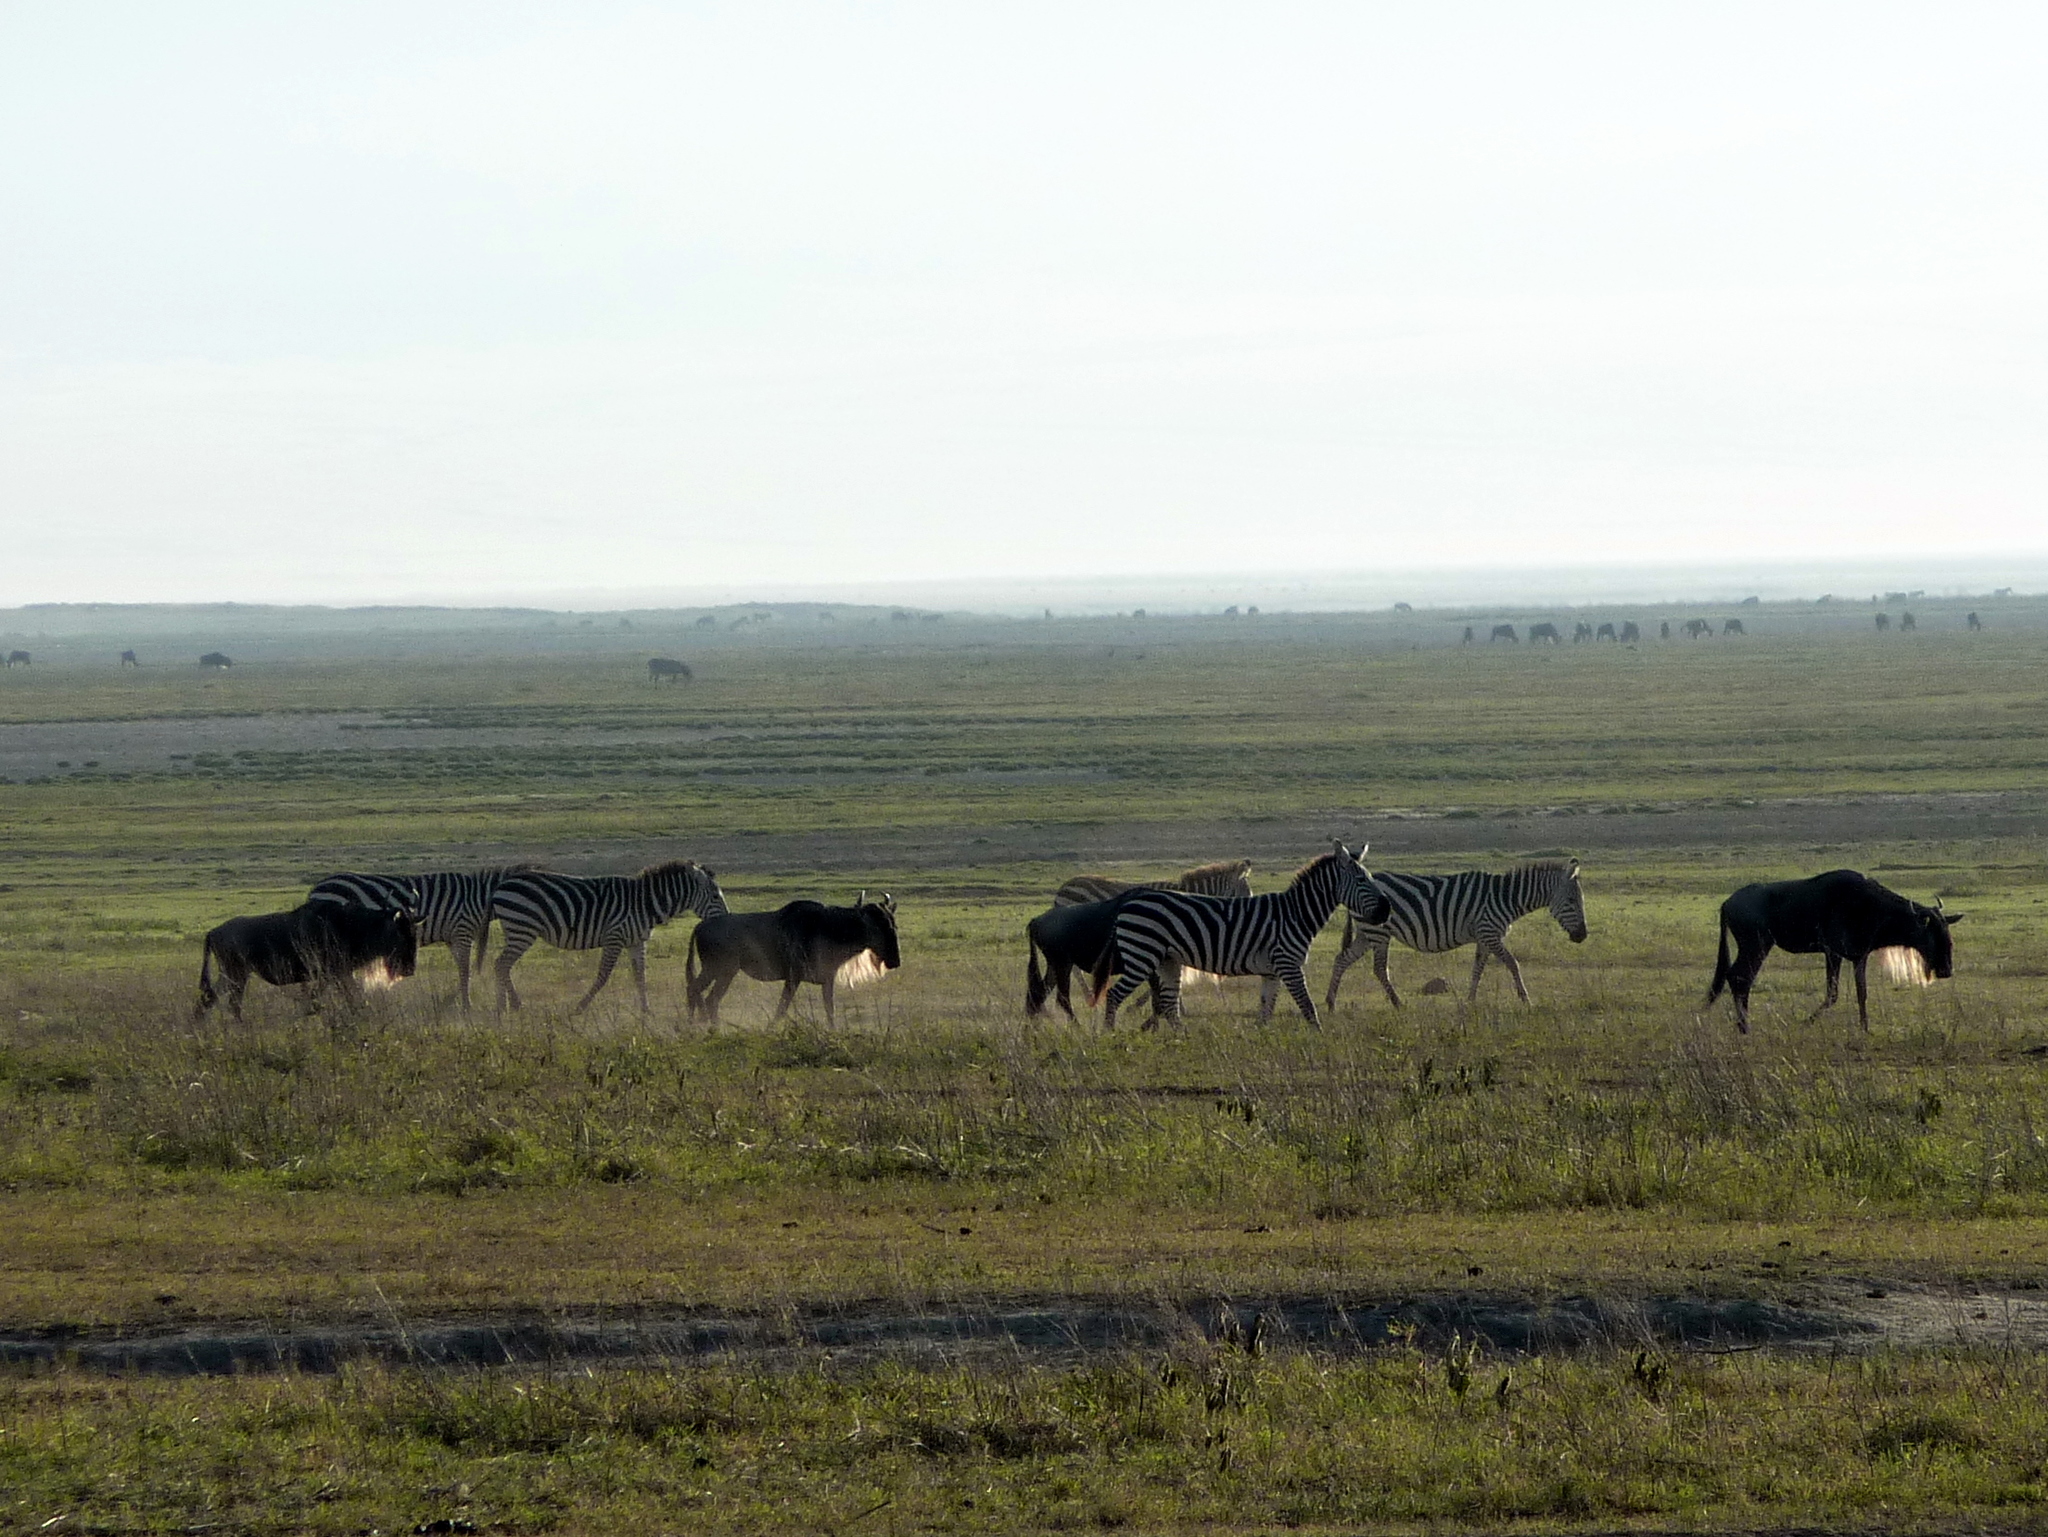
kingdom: Animalia
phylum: Chordata
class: Mammalia
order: Perissodactyla
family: Equidae
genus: Equus
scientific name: Equus quagga
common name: Plains zebra
